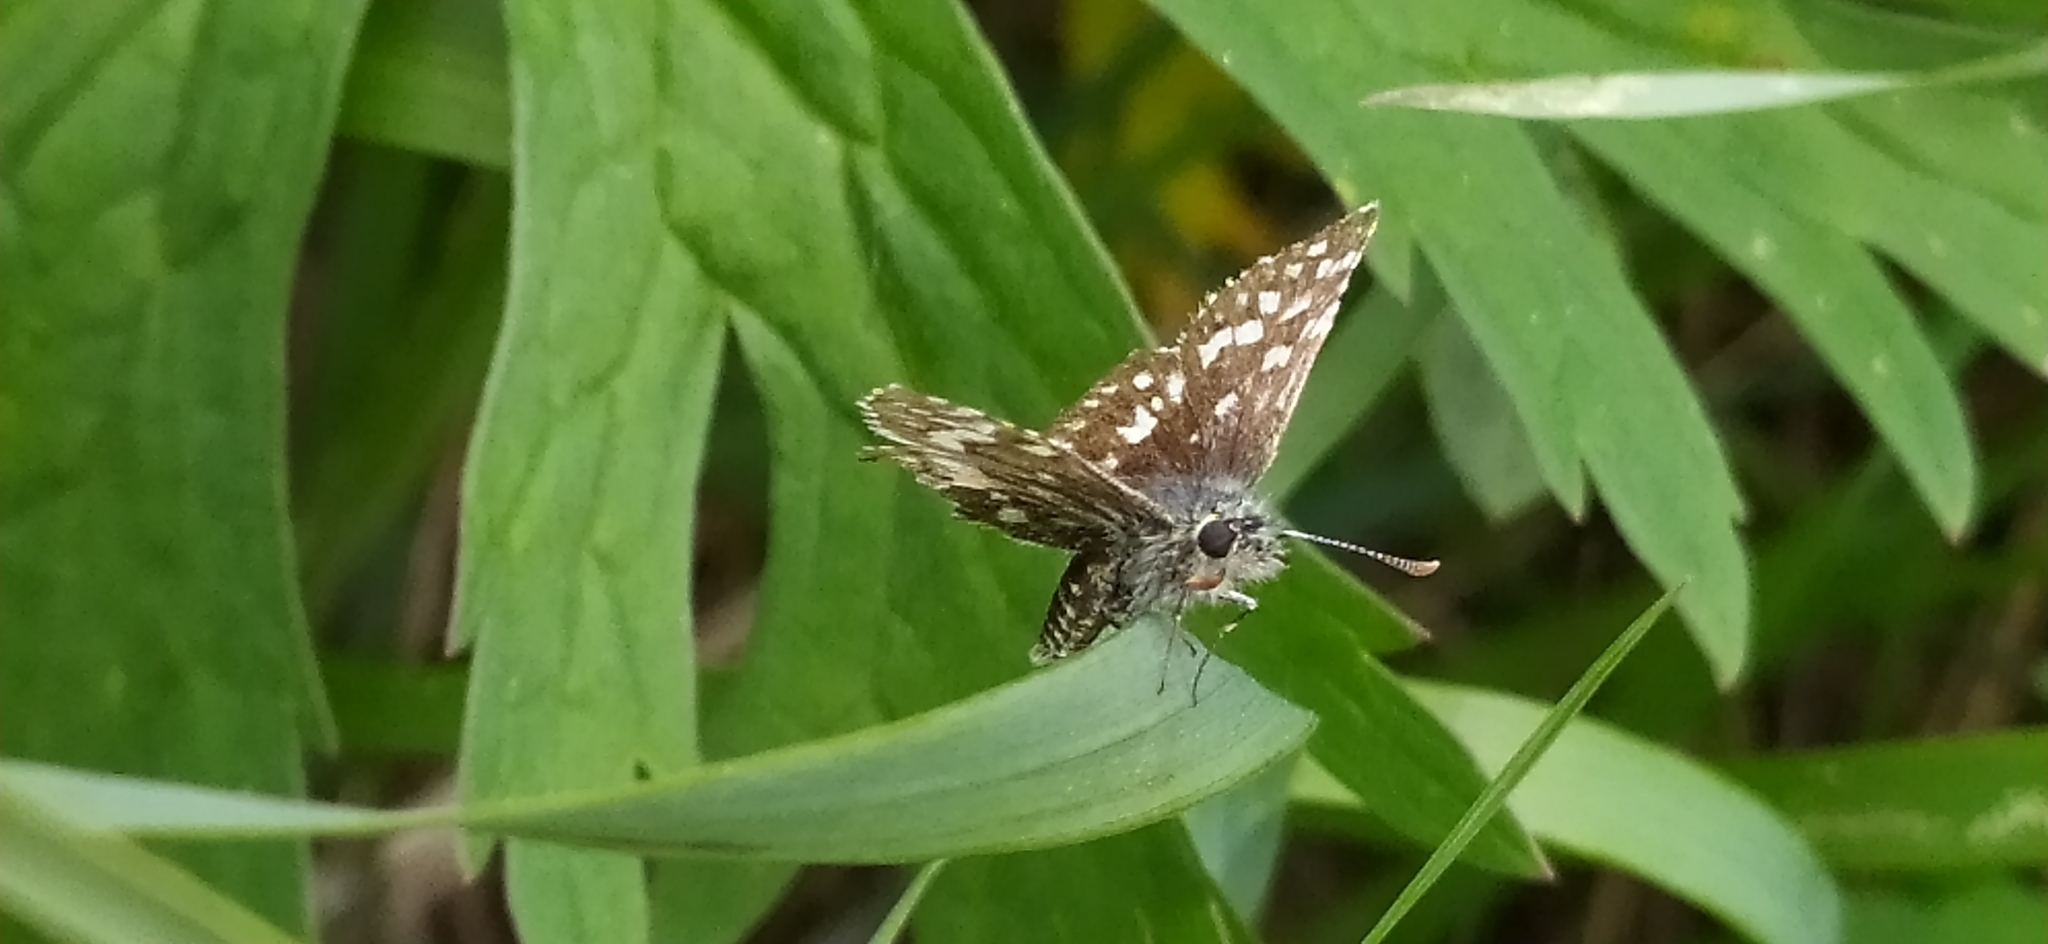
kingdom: Animalia
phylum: Arthropoda
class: Insecta
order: Lepidoptera
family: Hesperiidae
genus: Pyrgus
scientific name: Pyrgus malvae
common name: Grizzled skipper
